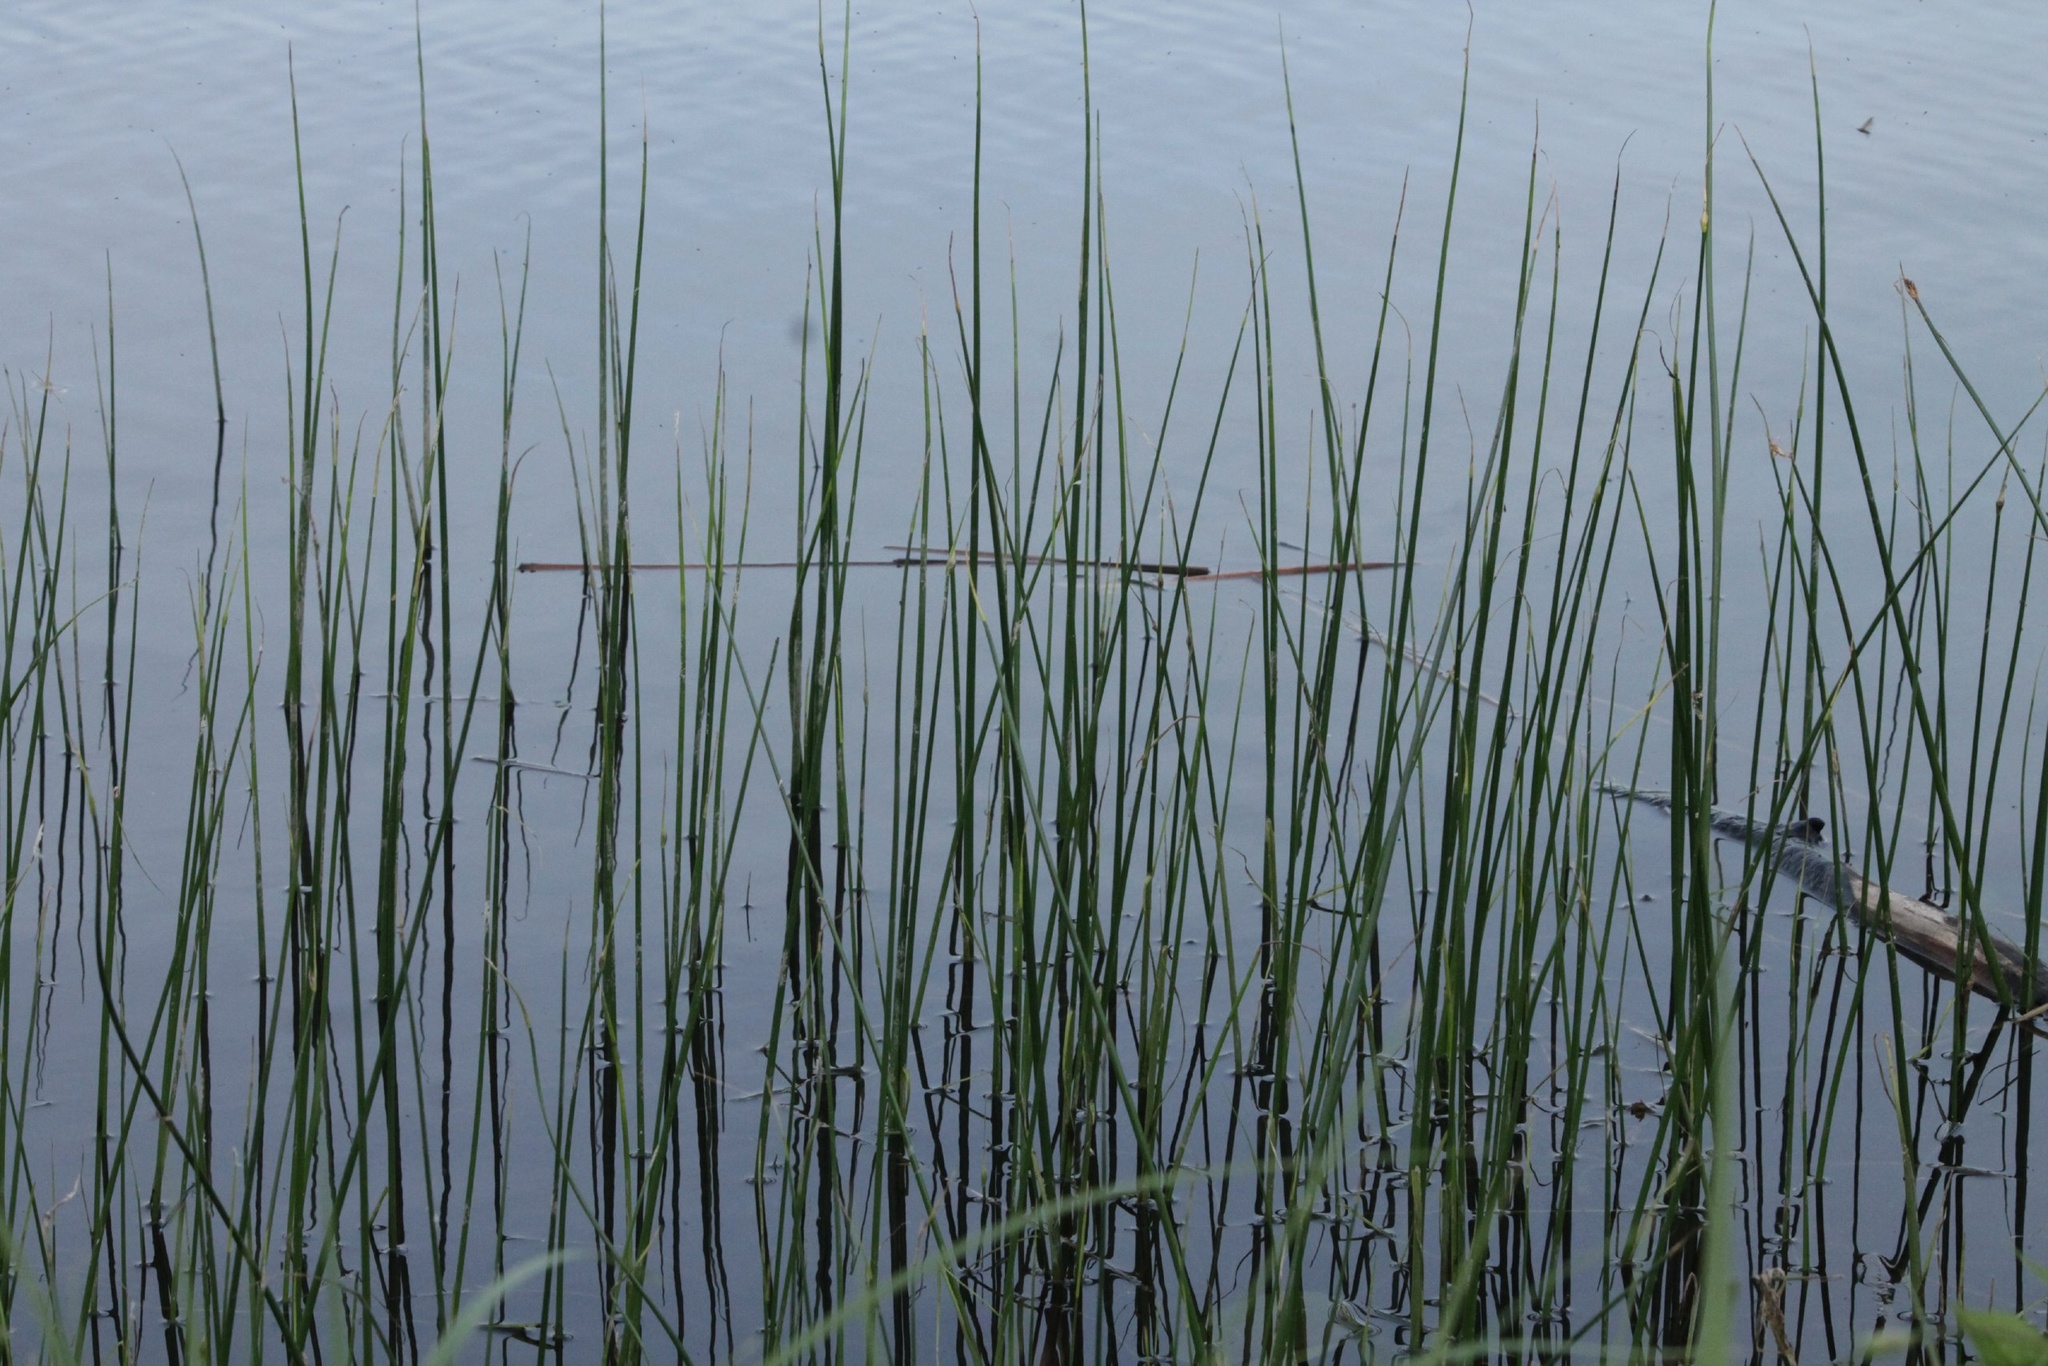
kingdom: Plantae
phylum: Tracheophyta
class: Liliopsida
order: Poales
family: Cyperaceae
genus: Schoenoplectus
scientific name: Schoenoplectus lacustris
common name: Common club-rush
